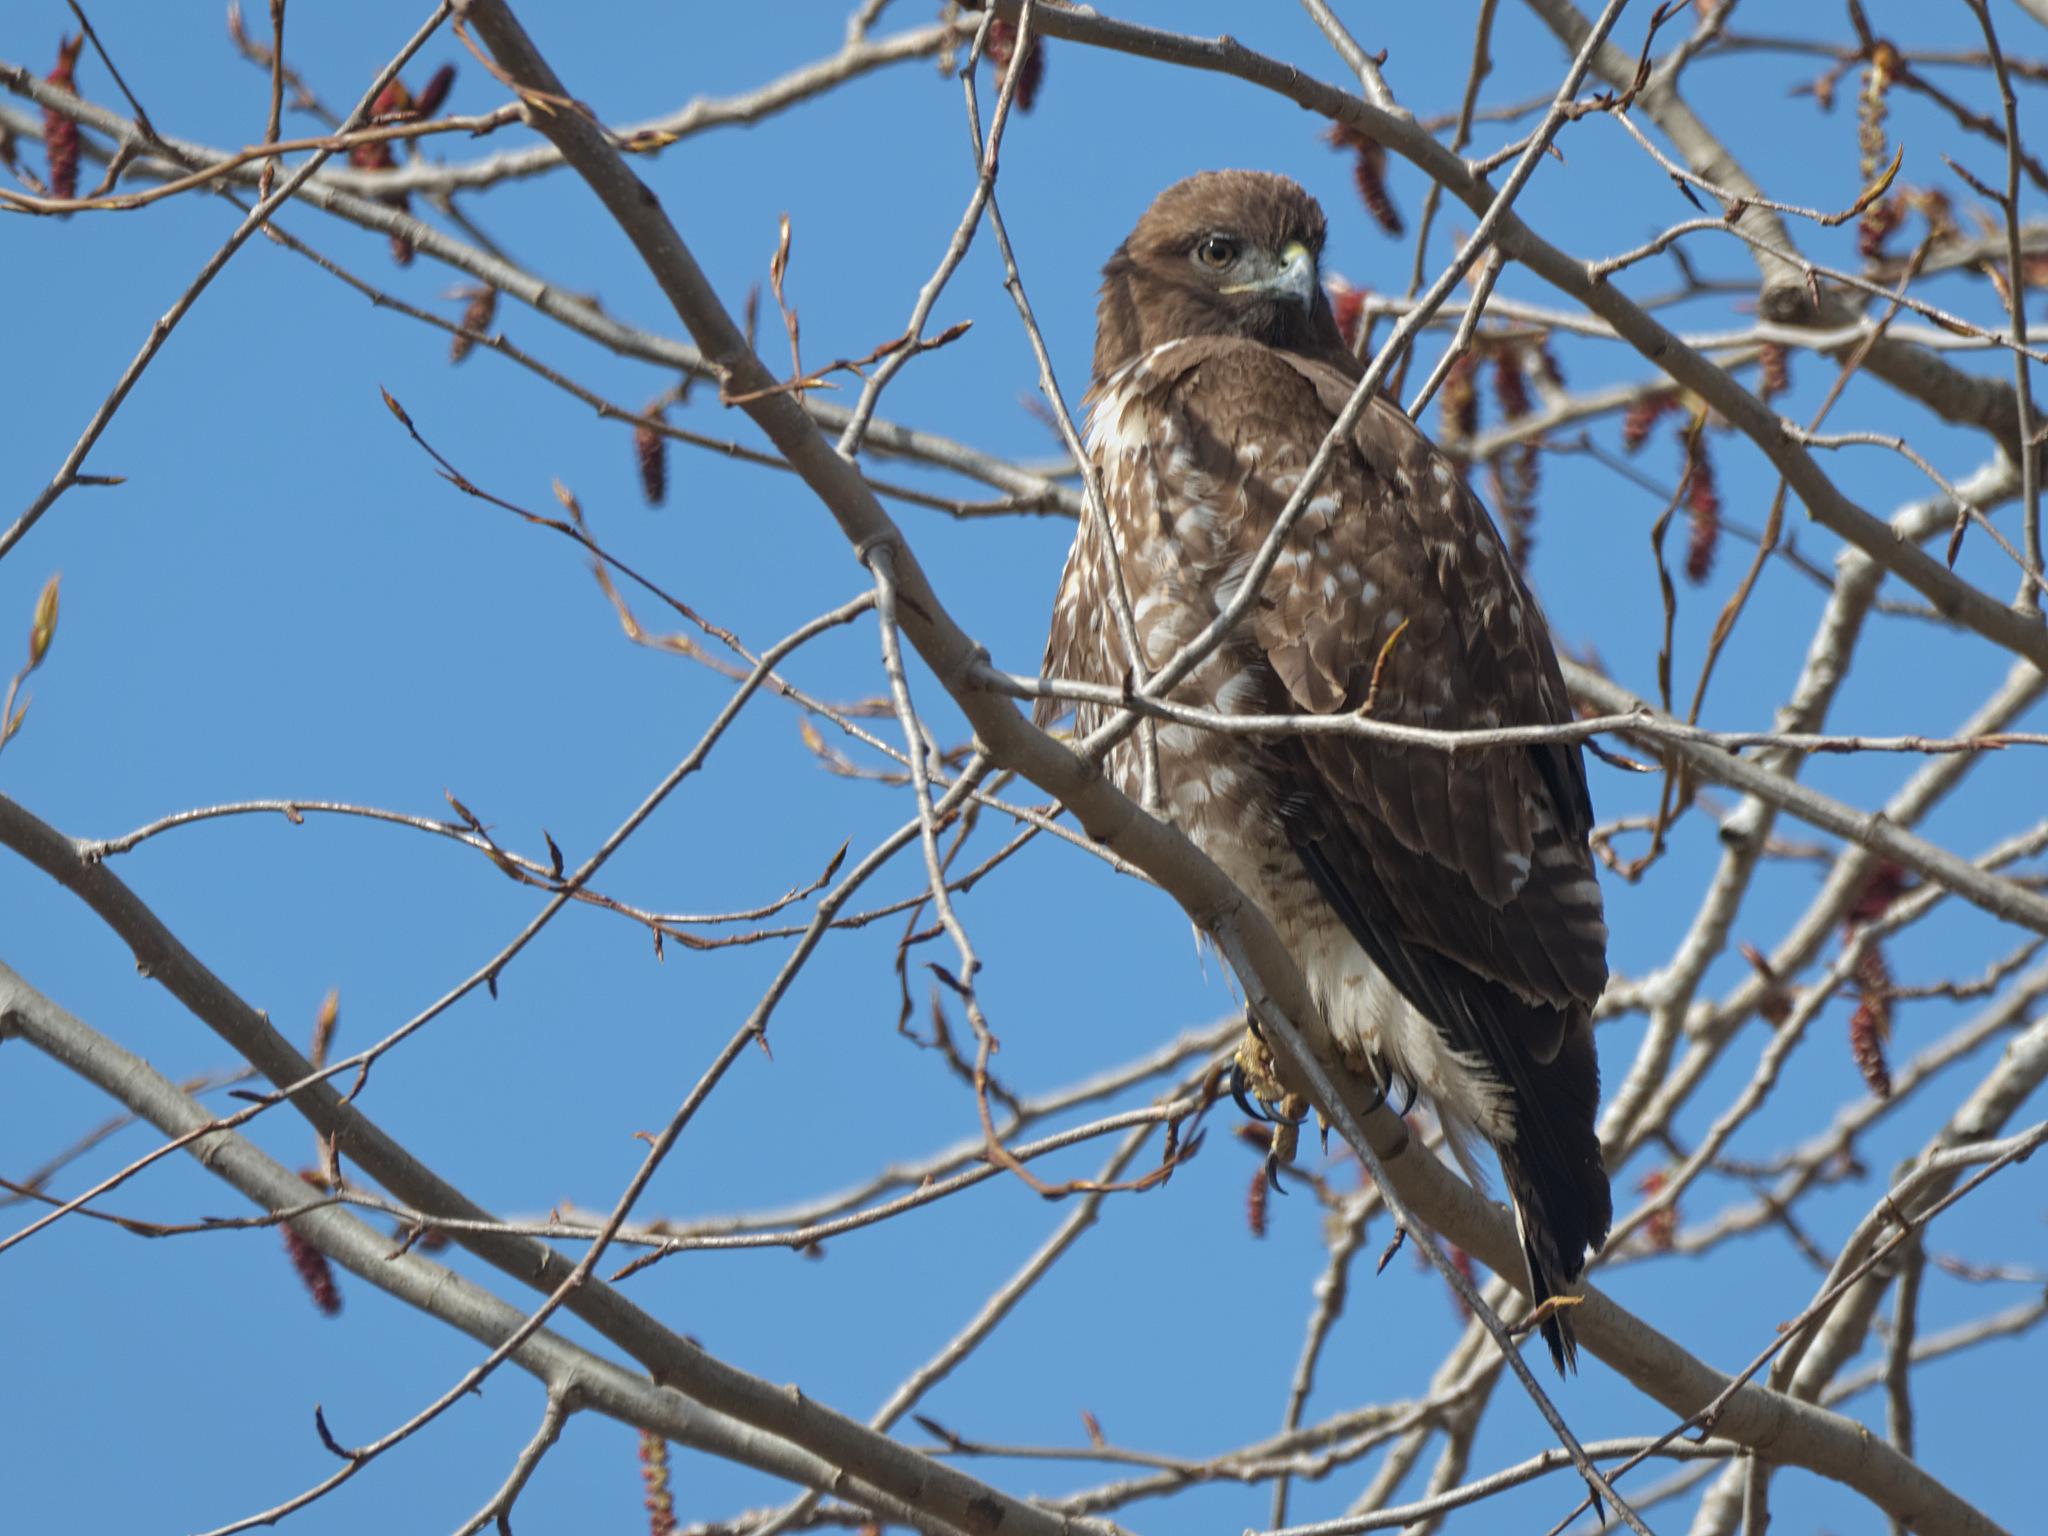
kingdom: Animalia
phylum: Chordata
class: Aves
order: Accipitriformes
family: Accipitridae
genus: Buteo
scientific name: Buteo jamaicensis
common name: Red-tailed hawk
